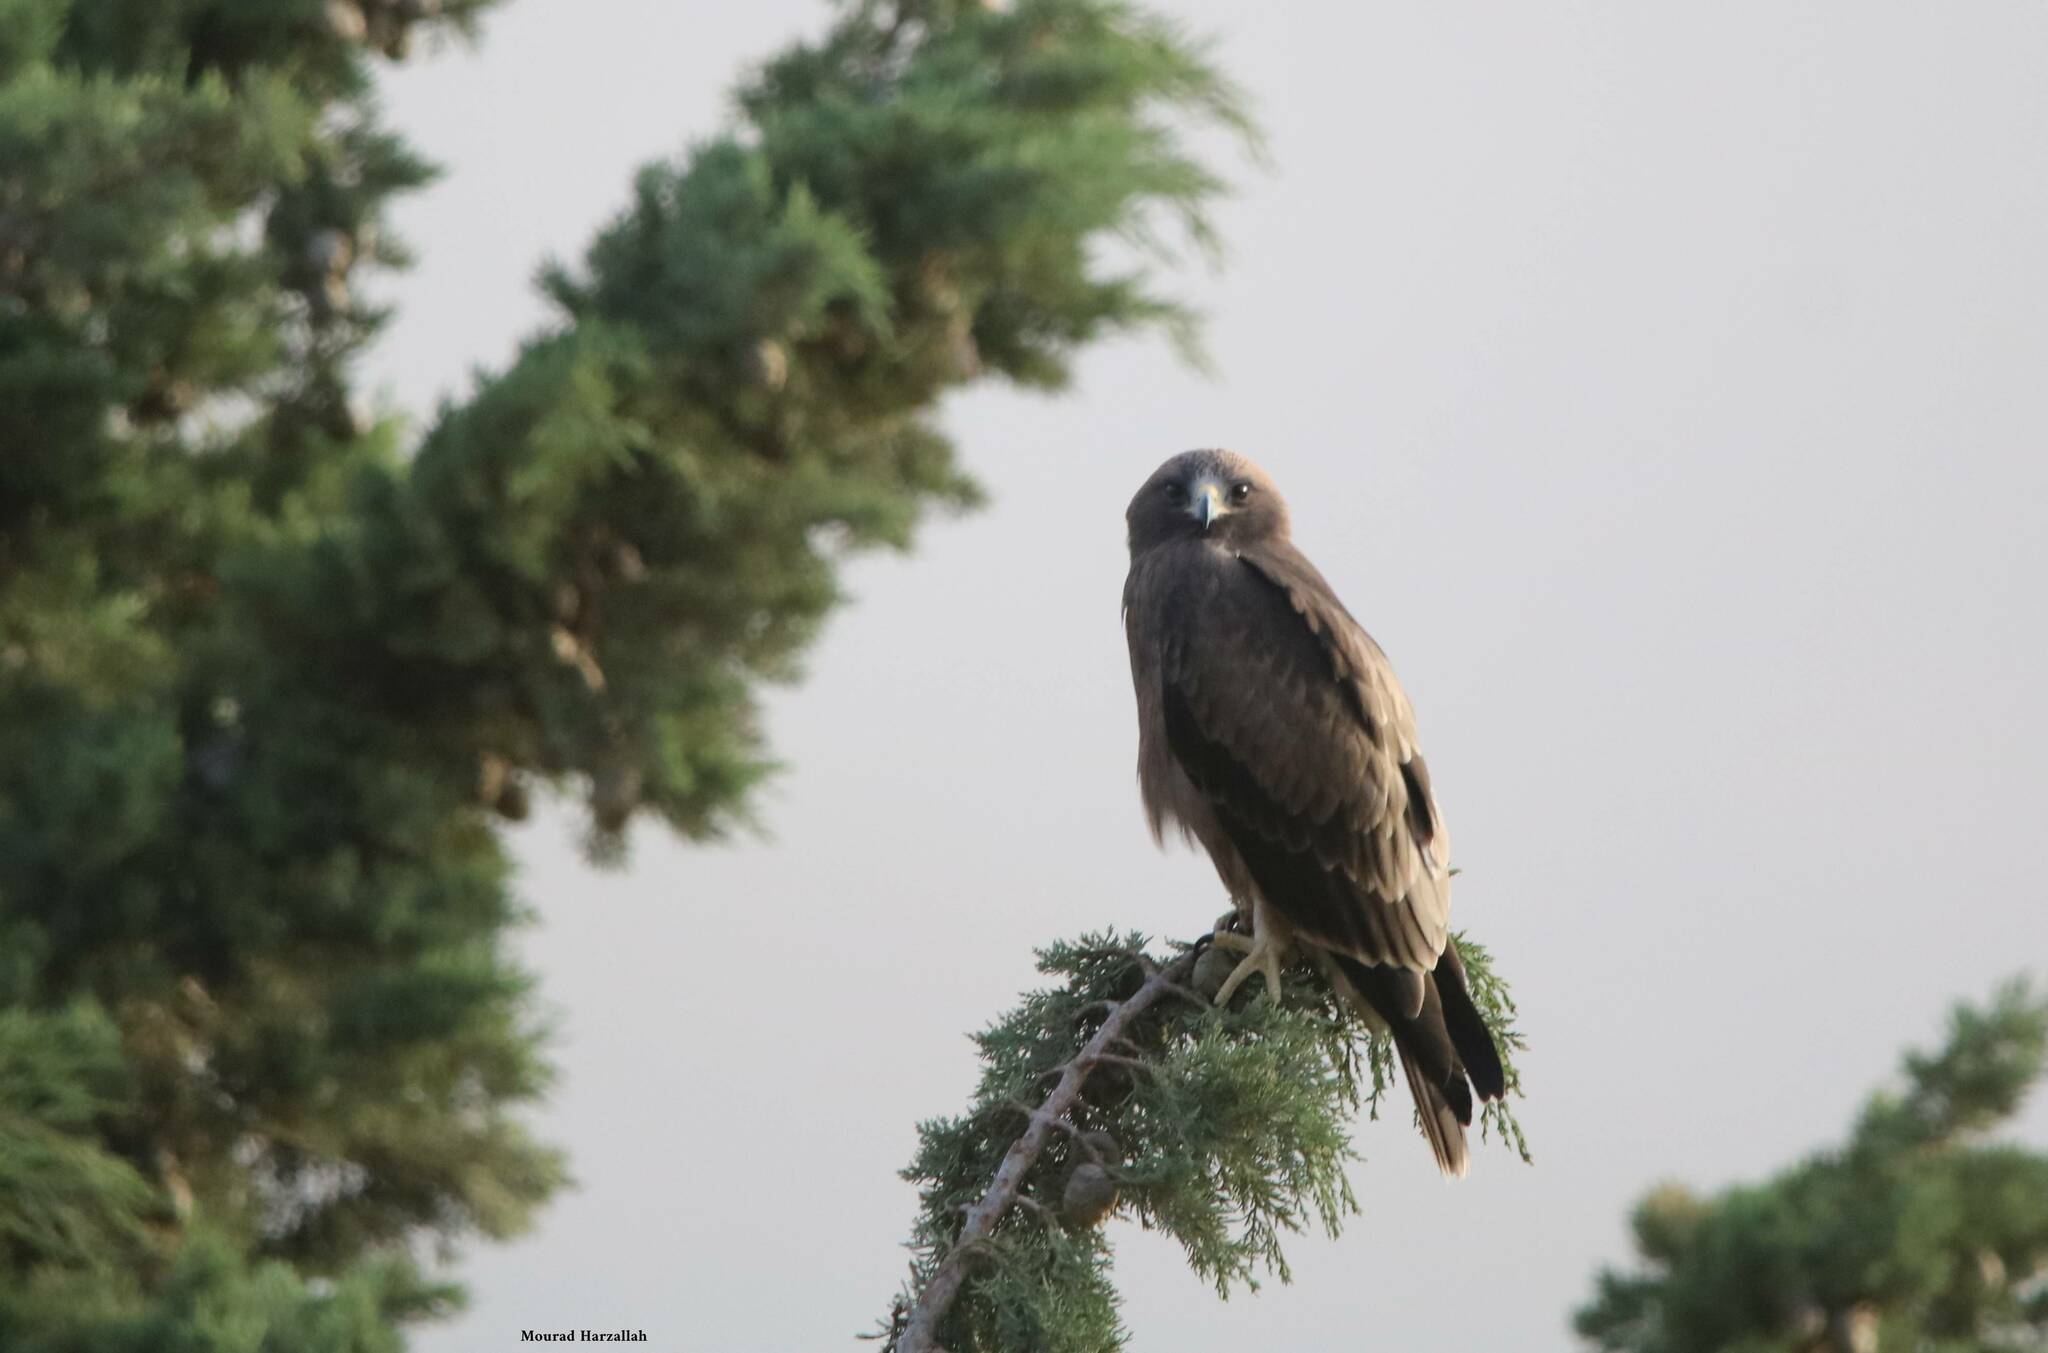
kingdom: Animalia
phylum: Chordata
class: Aves
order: Accipitriformes
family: Accipitridae
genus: Hieraaetus
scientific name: Hieraaetus pennatus
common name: Booted eagle
